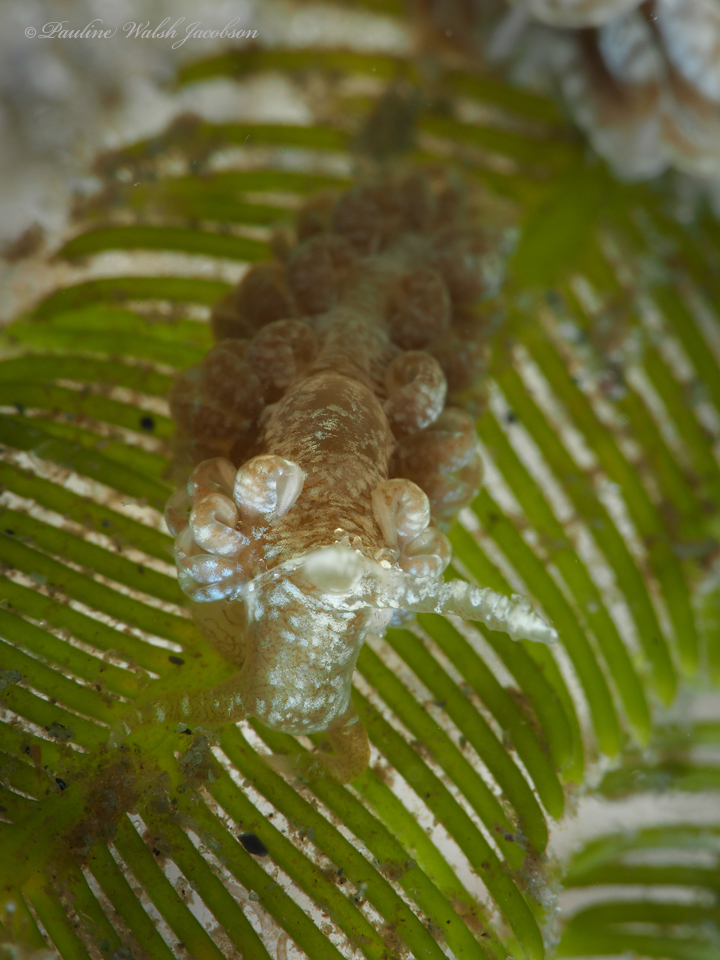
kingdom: Animalia
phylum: Mollusca
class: Gastropoda
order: Nudibranchia
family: Aeolidiidae
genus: Spurilla
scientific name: Spurilla sargassicola
